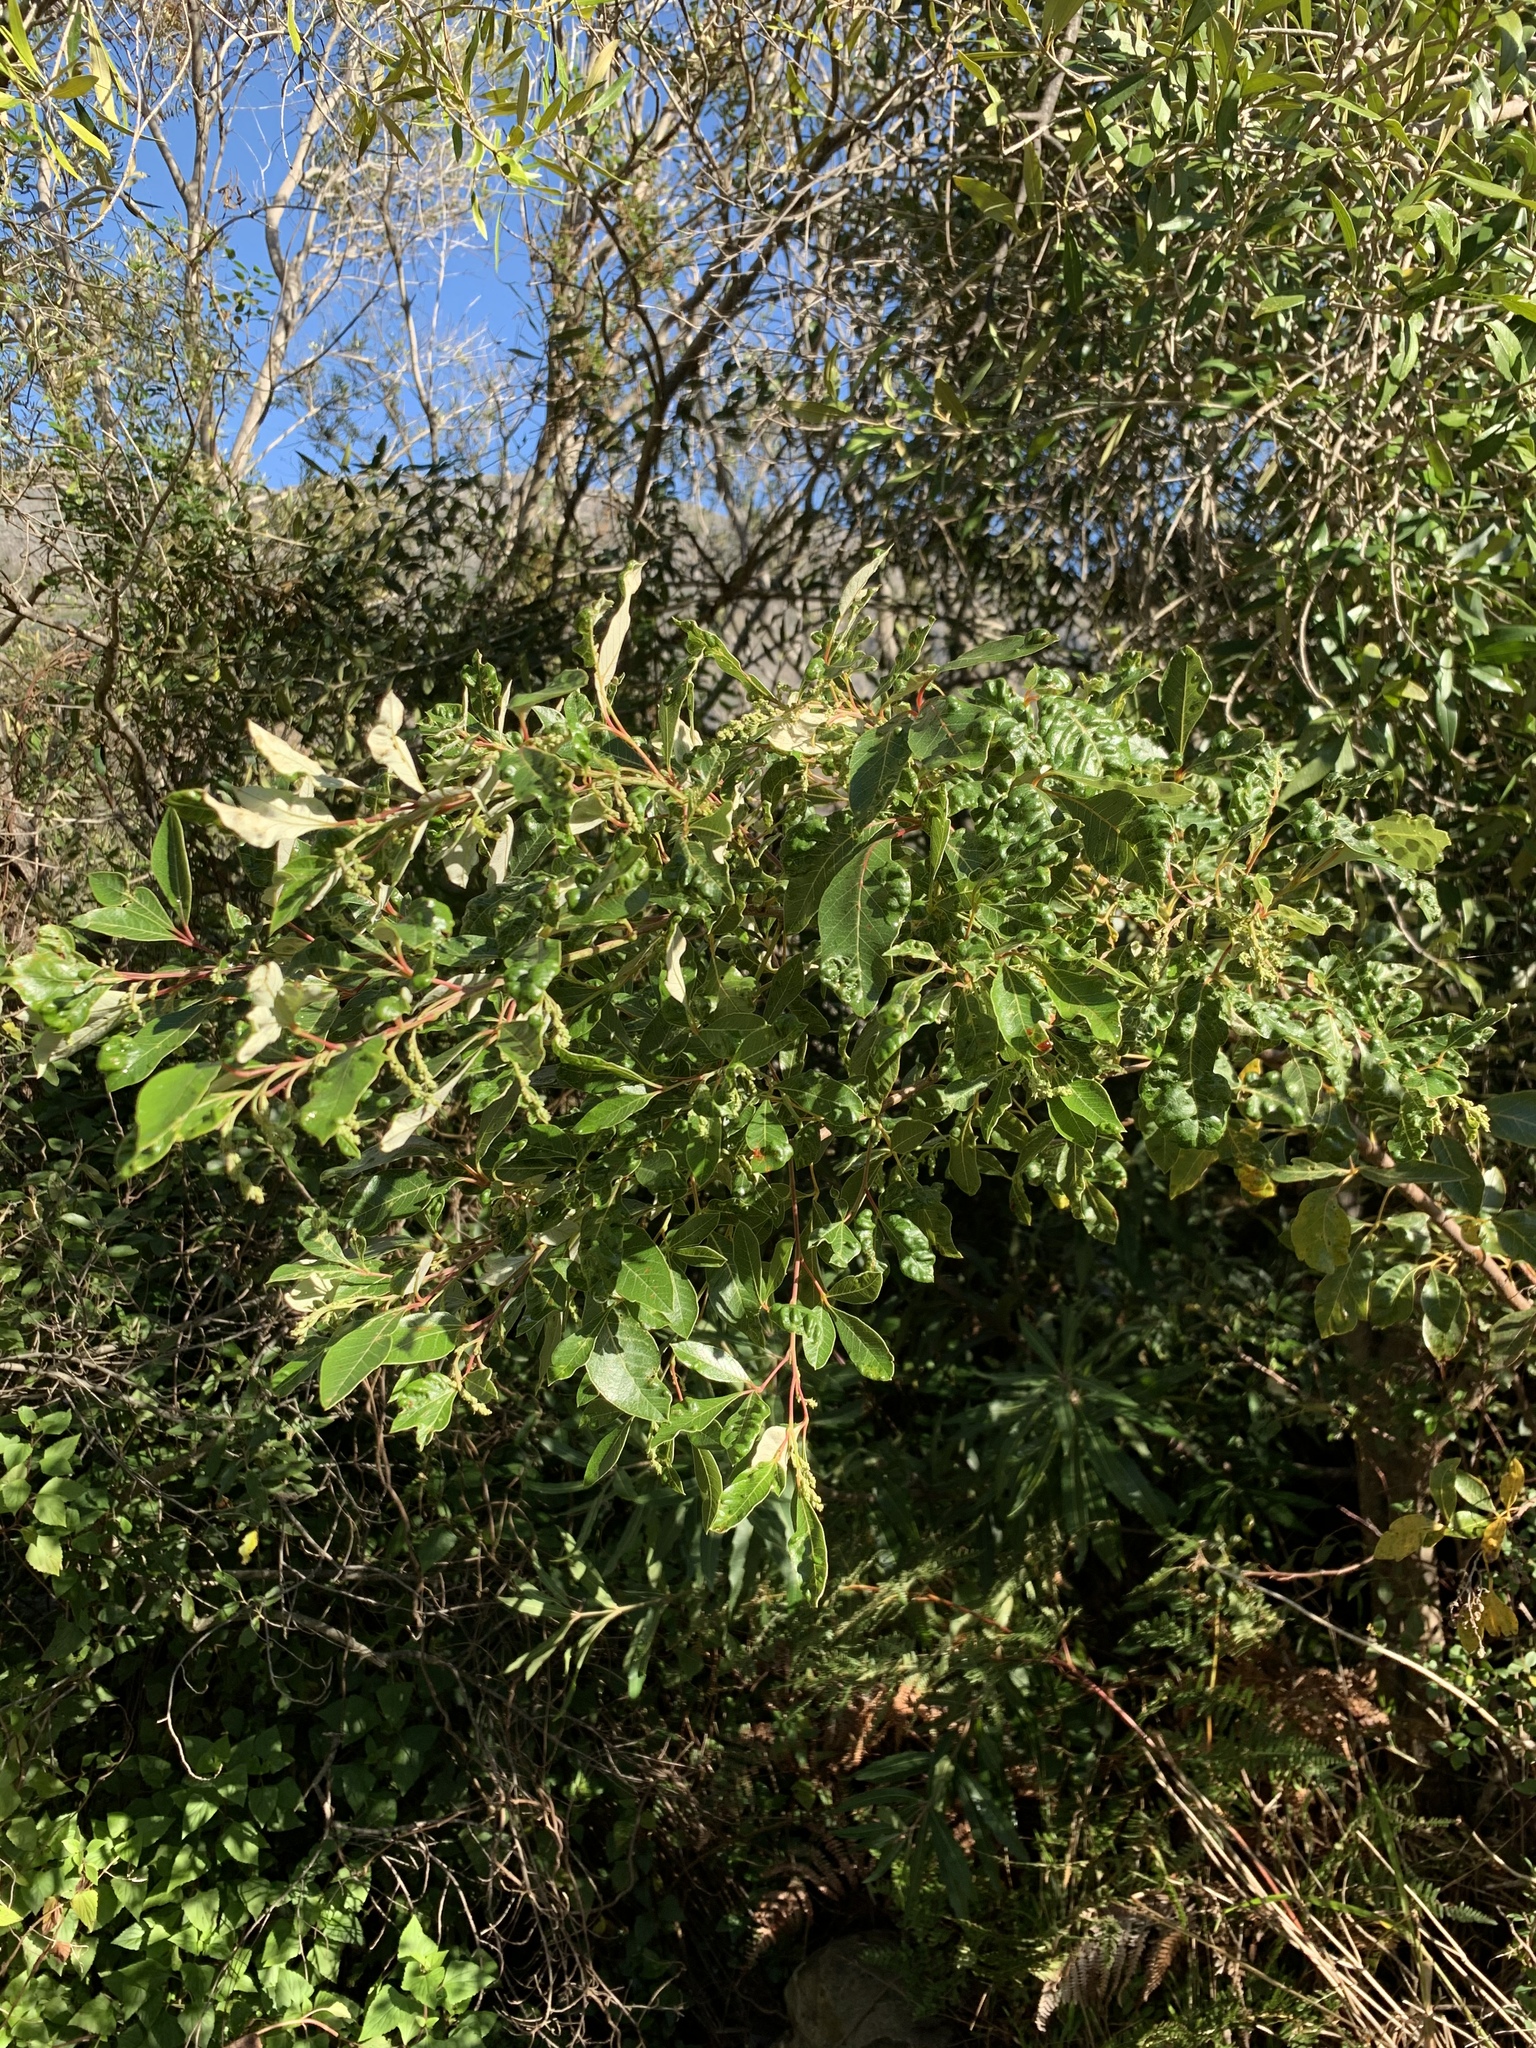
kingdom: Plantae
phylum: Tracheophyta
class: Magnoliopsida
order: Sapindales
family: Anacardiaceae
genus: Searsia
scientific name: Searsia tomentosa
